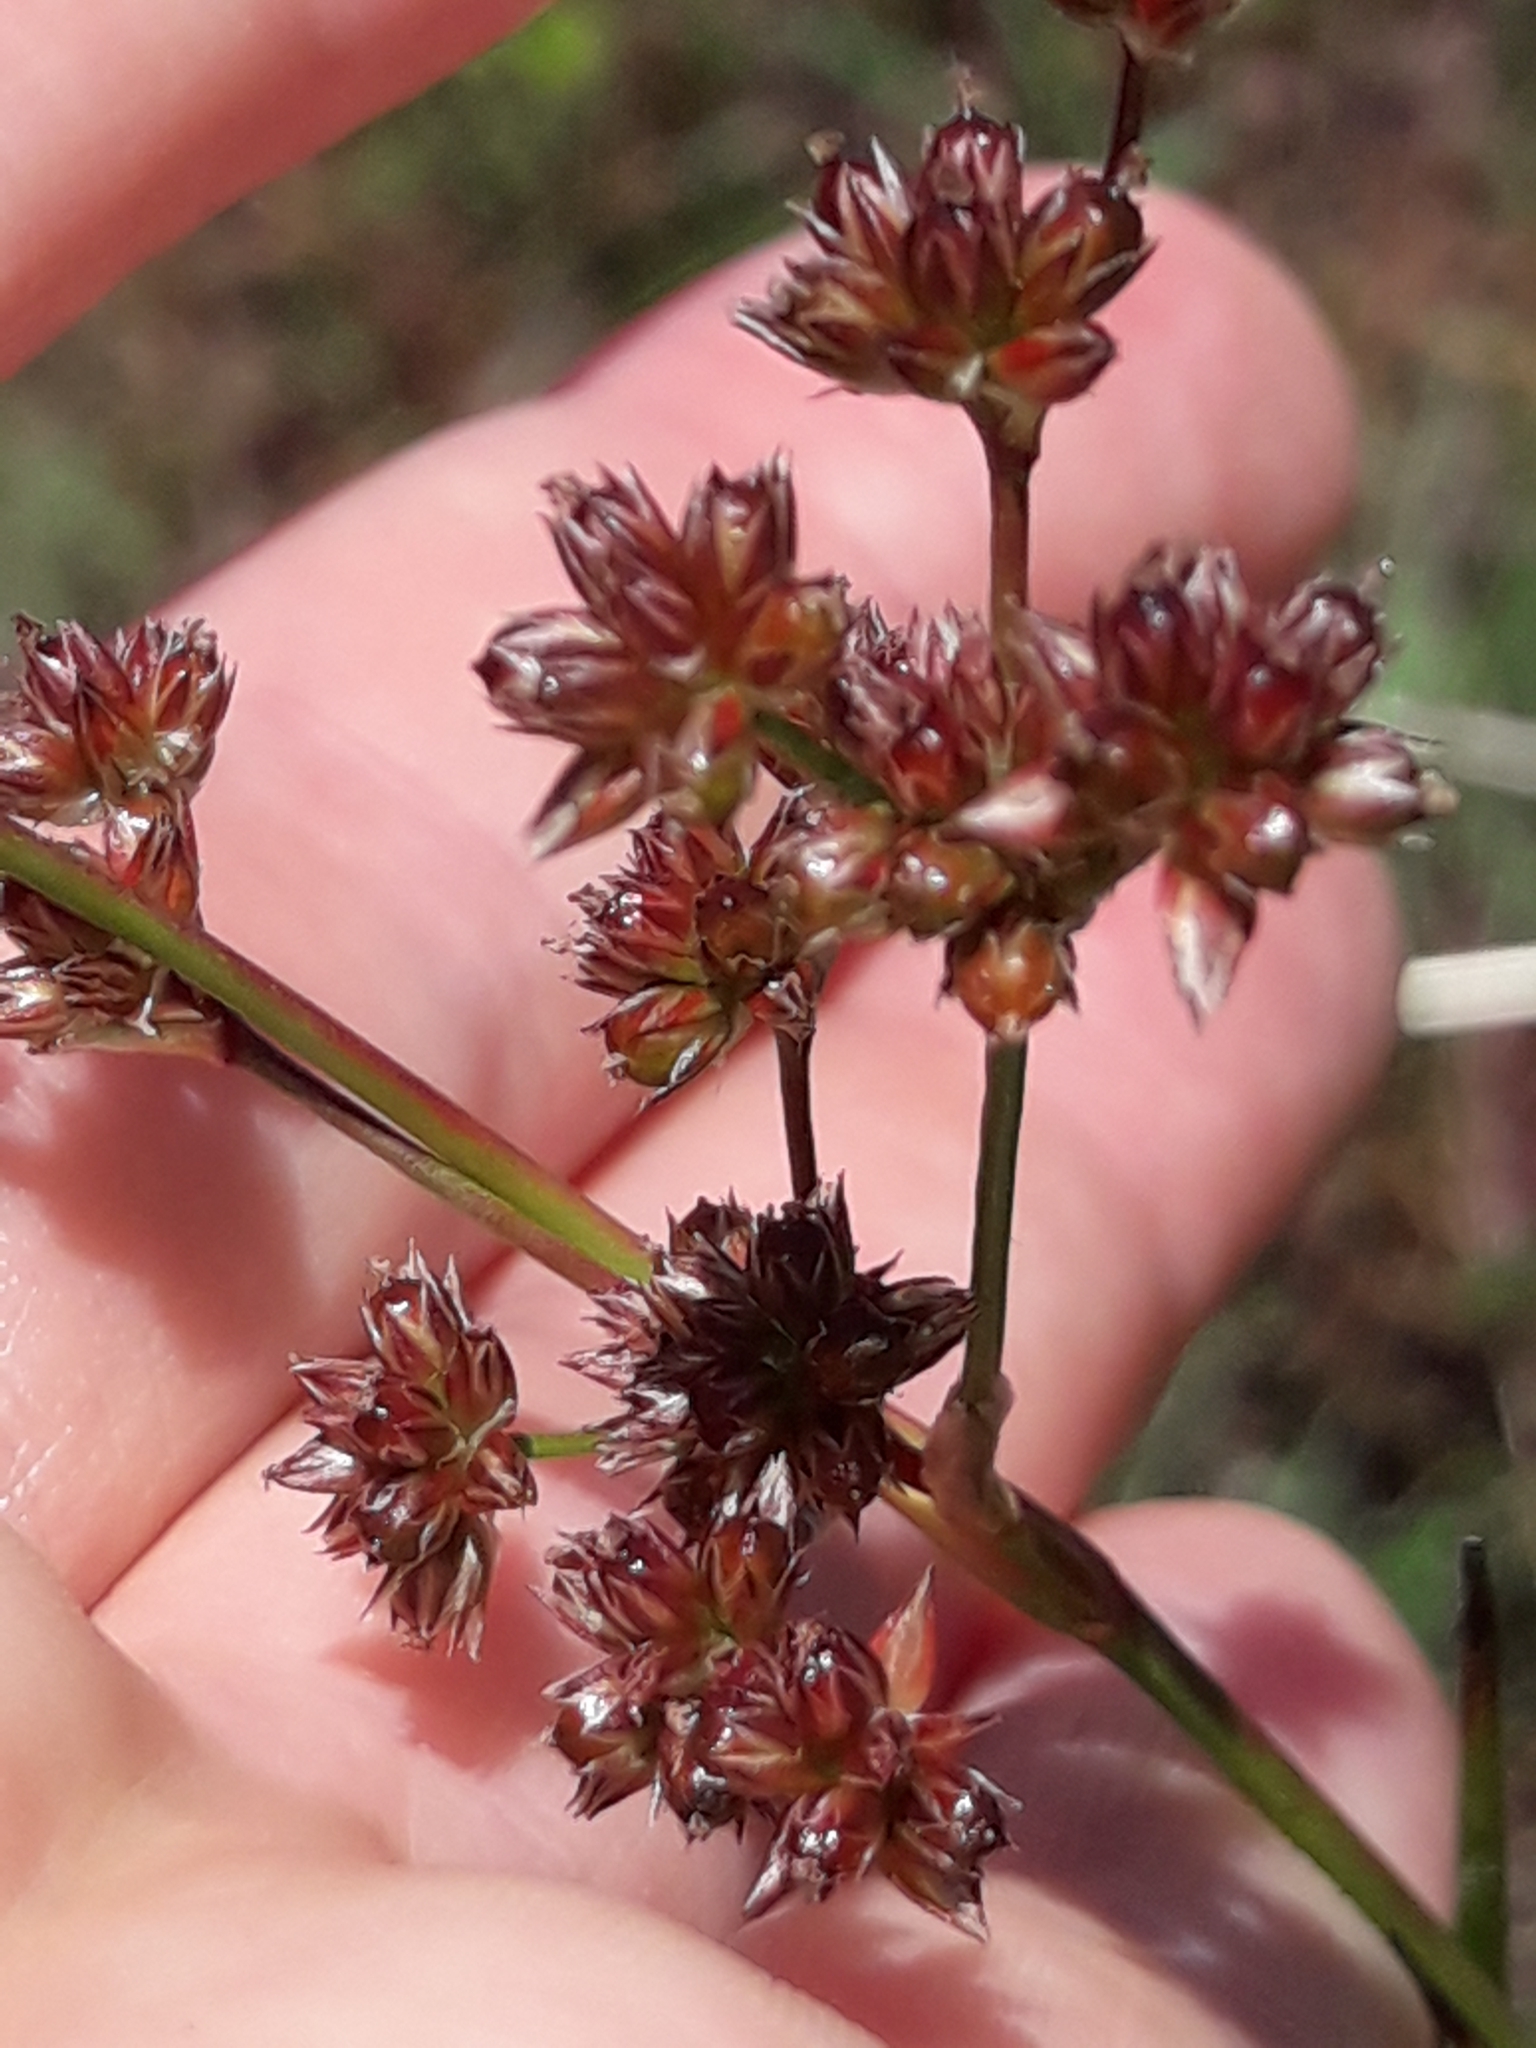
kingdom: Plantae
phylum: Tracheophyta
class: Liliopsida
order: Poales
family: Juncaceae
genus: Juncus
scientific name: Juncus microcephalus
